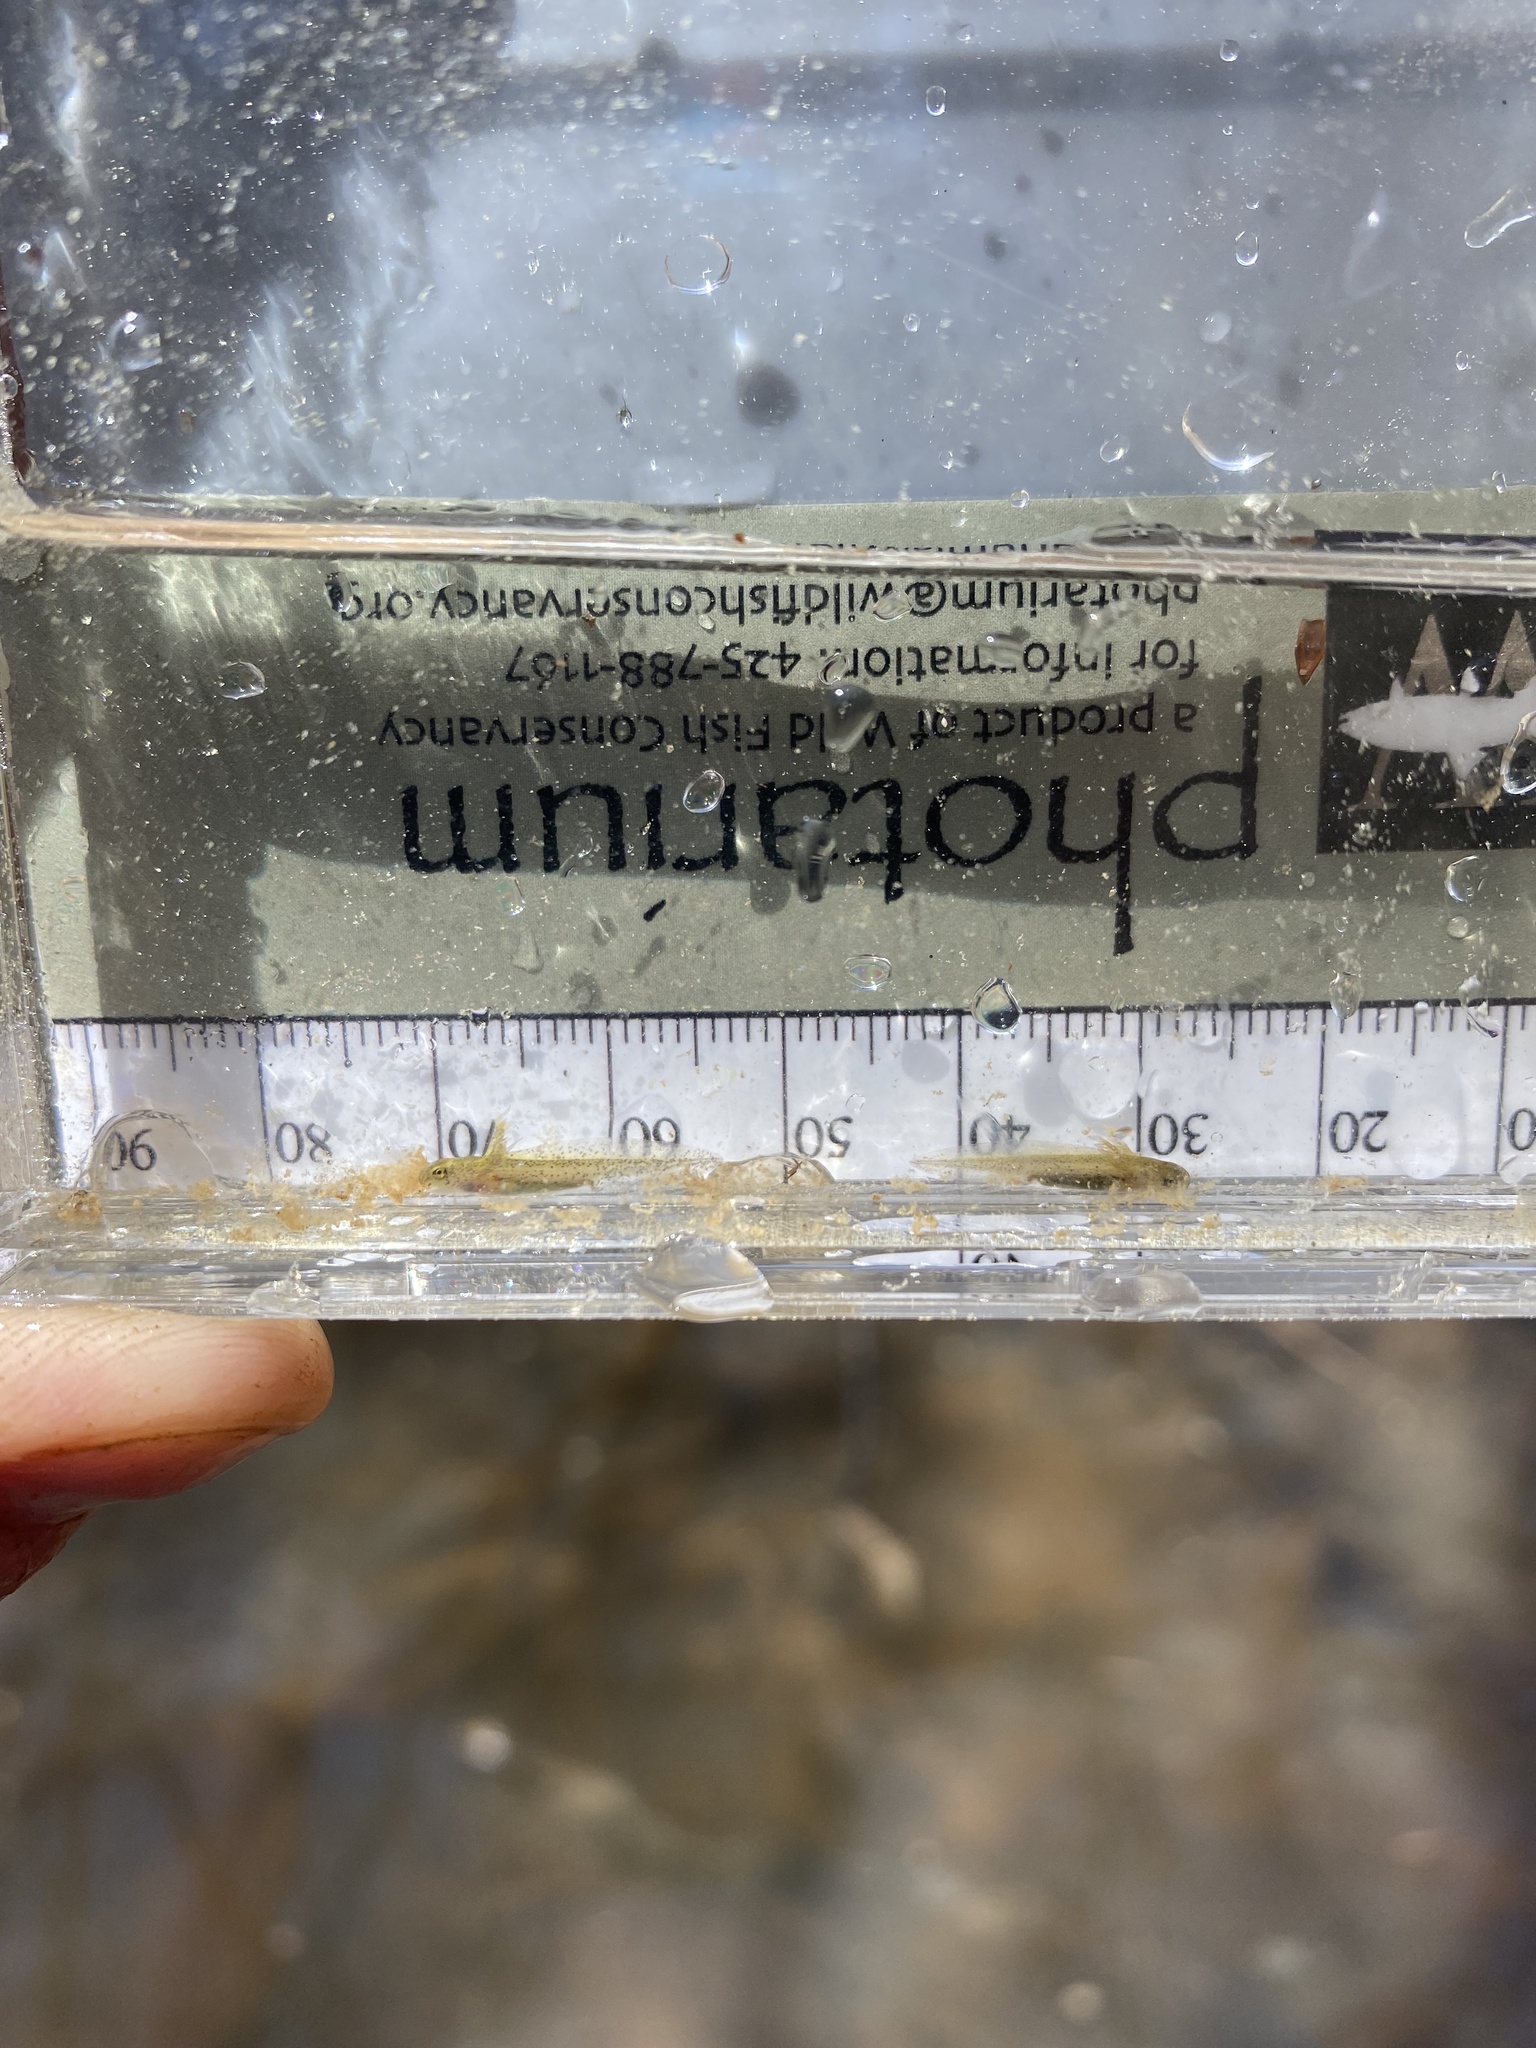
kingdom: Animalia
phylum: Chordata
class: Amphibia
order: Caudata
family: Ambystomatidae
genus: Ambystoma
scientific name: Ambystoma maculatum
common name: Spotted salamander
